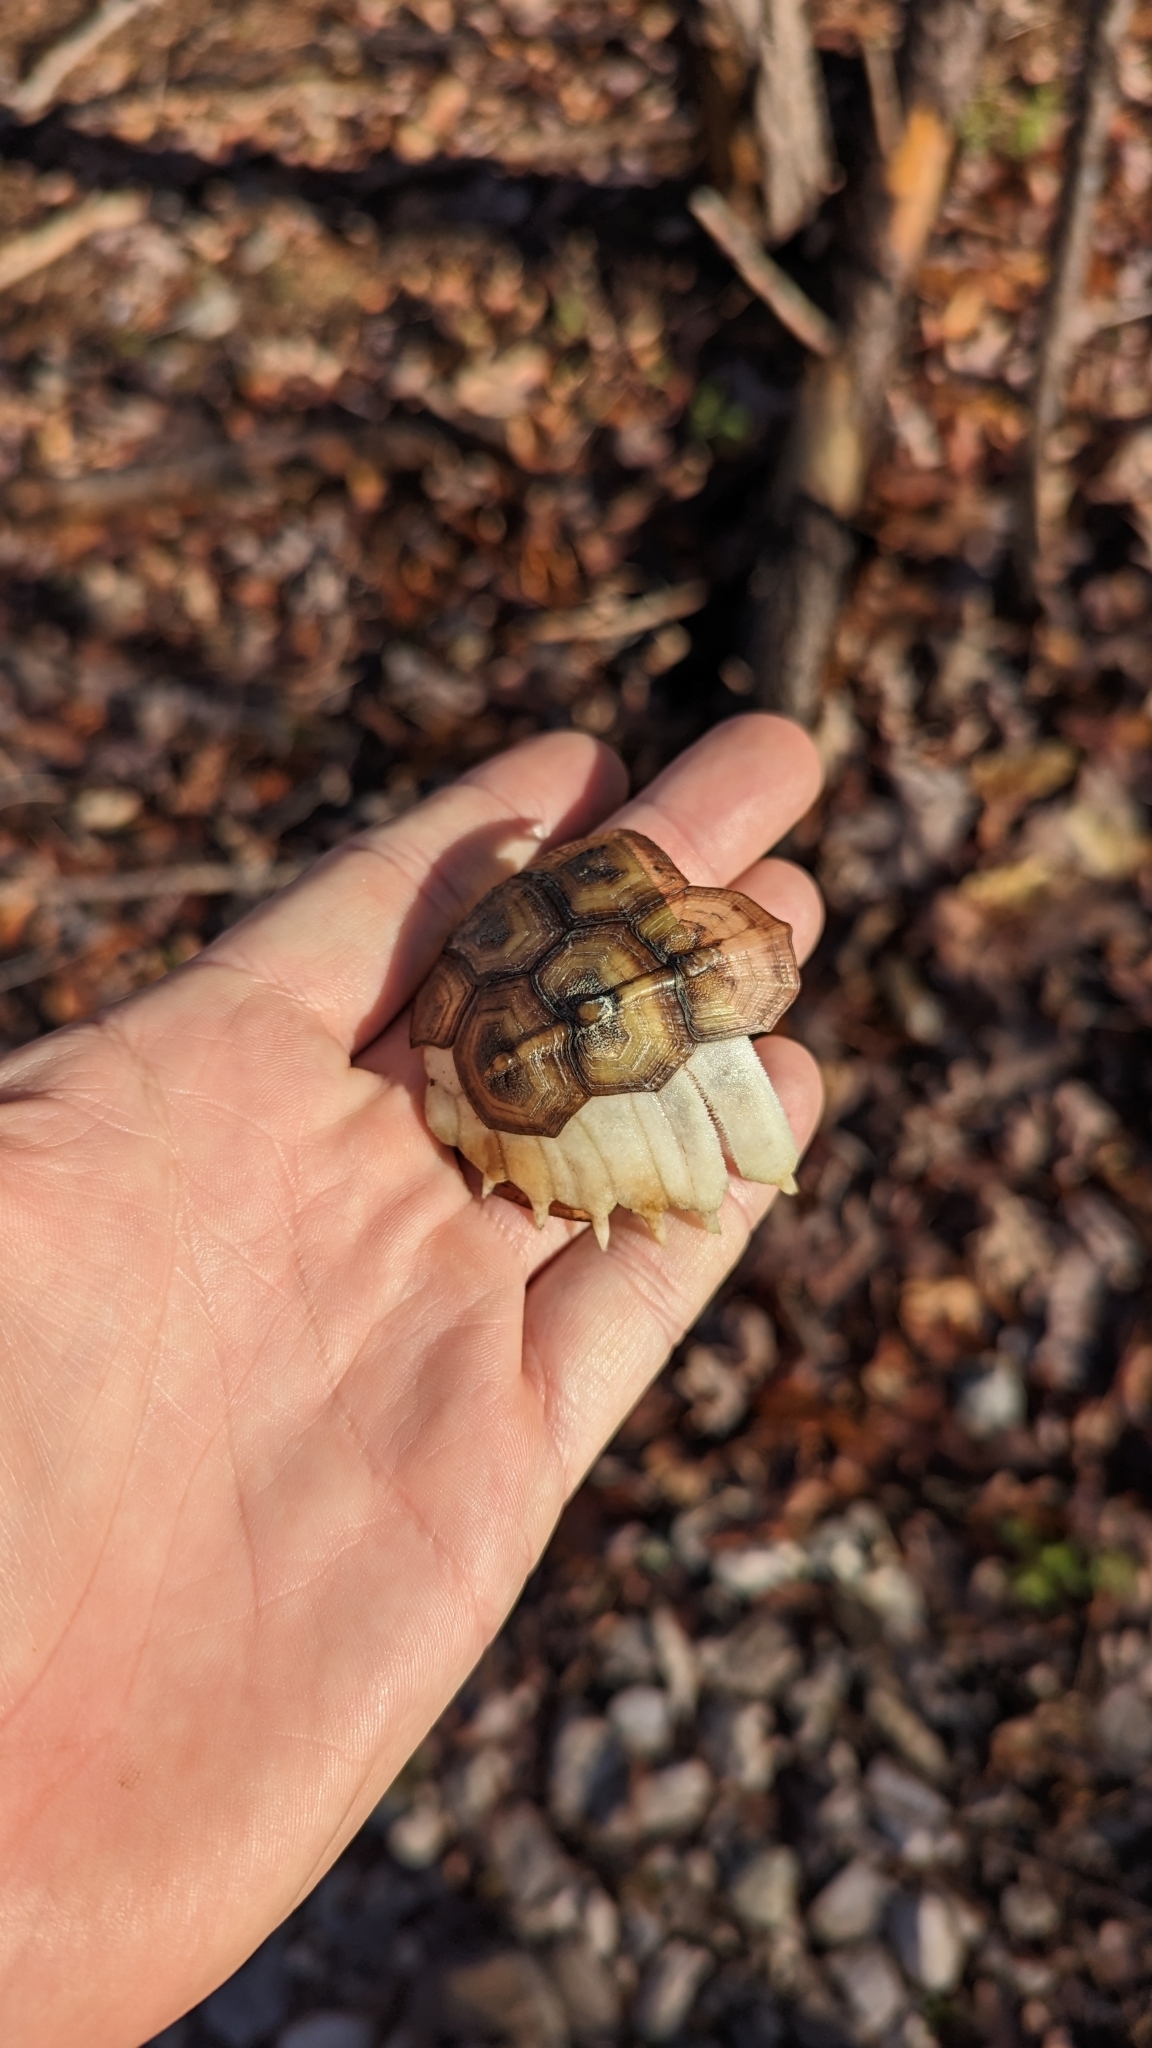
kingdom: Animalia
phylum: Chordata
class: Testudines
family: Emydidae
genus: Terrapene
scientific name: Terrapene carolina
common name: Common box turtle
